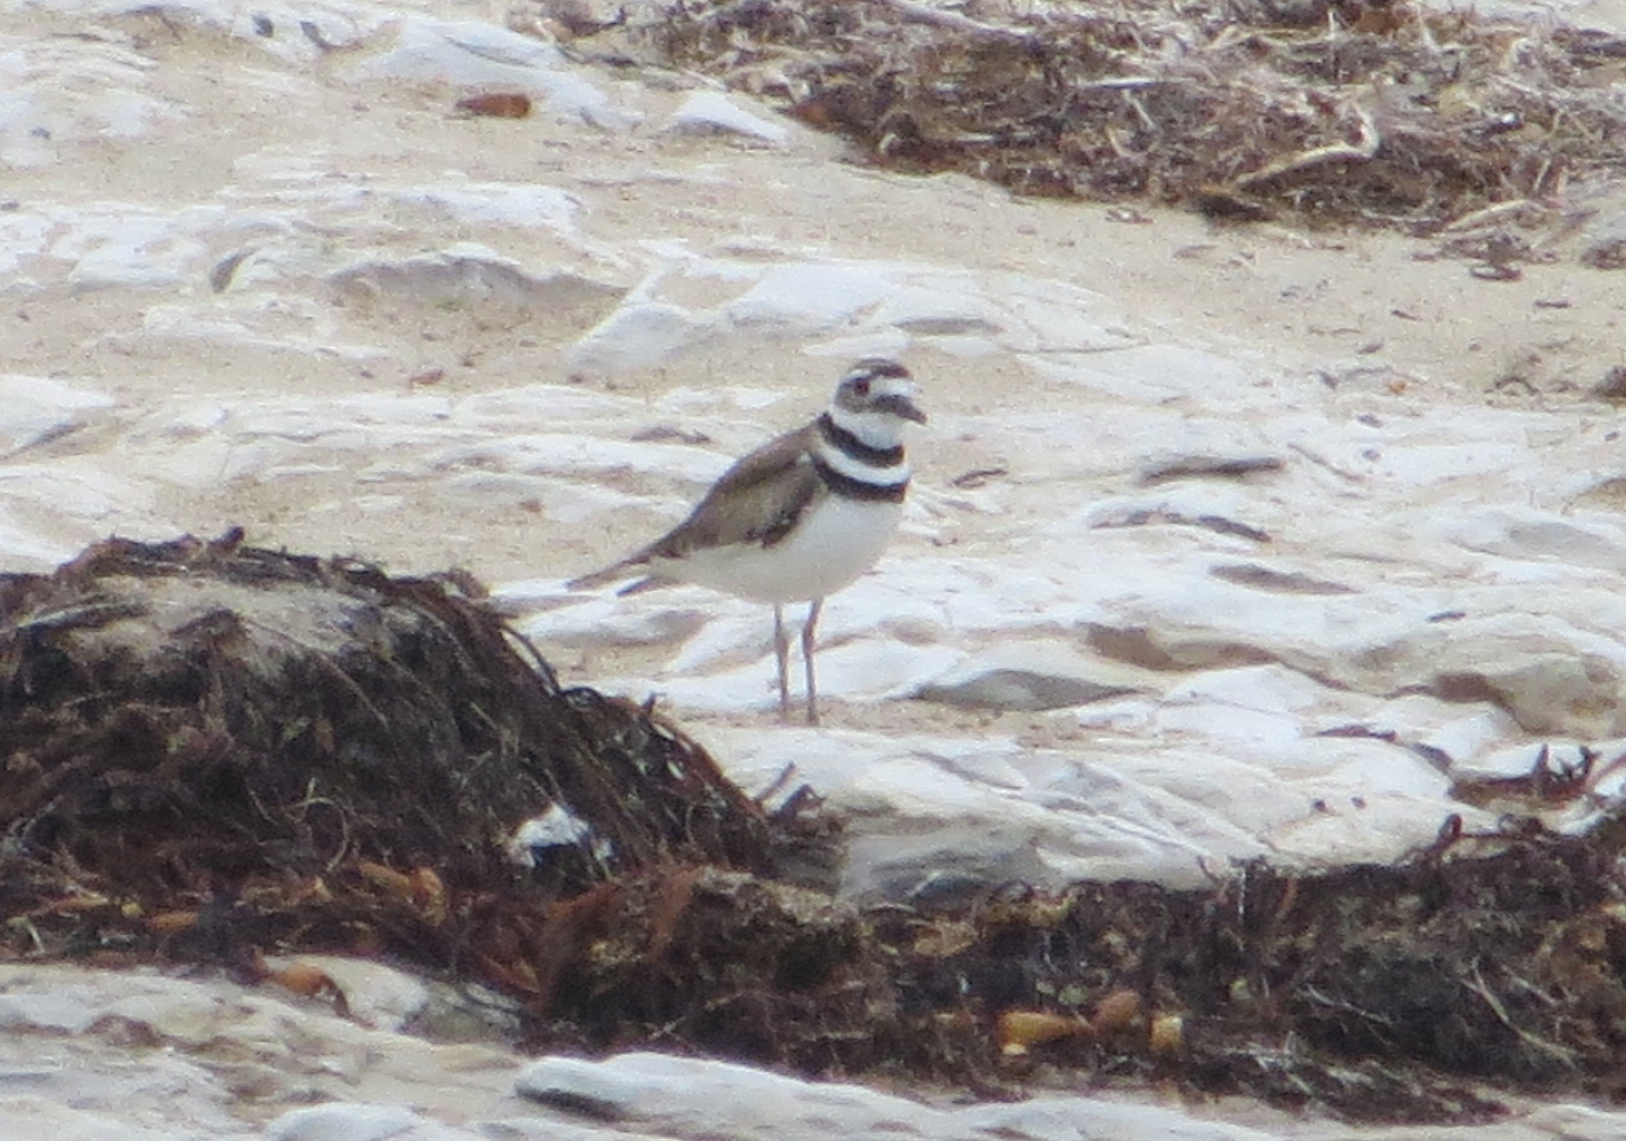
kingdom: Animalia
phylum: Chordata
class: Aves
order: Charadriiformes
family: Charadriidae
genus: Charadrius
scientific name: Charadrius vociferus
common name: Killdeer
